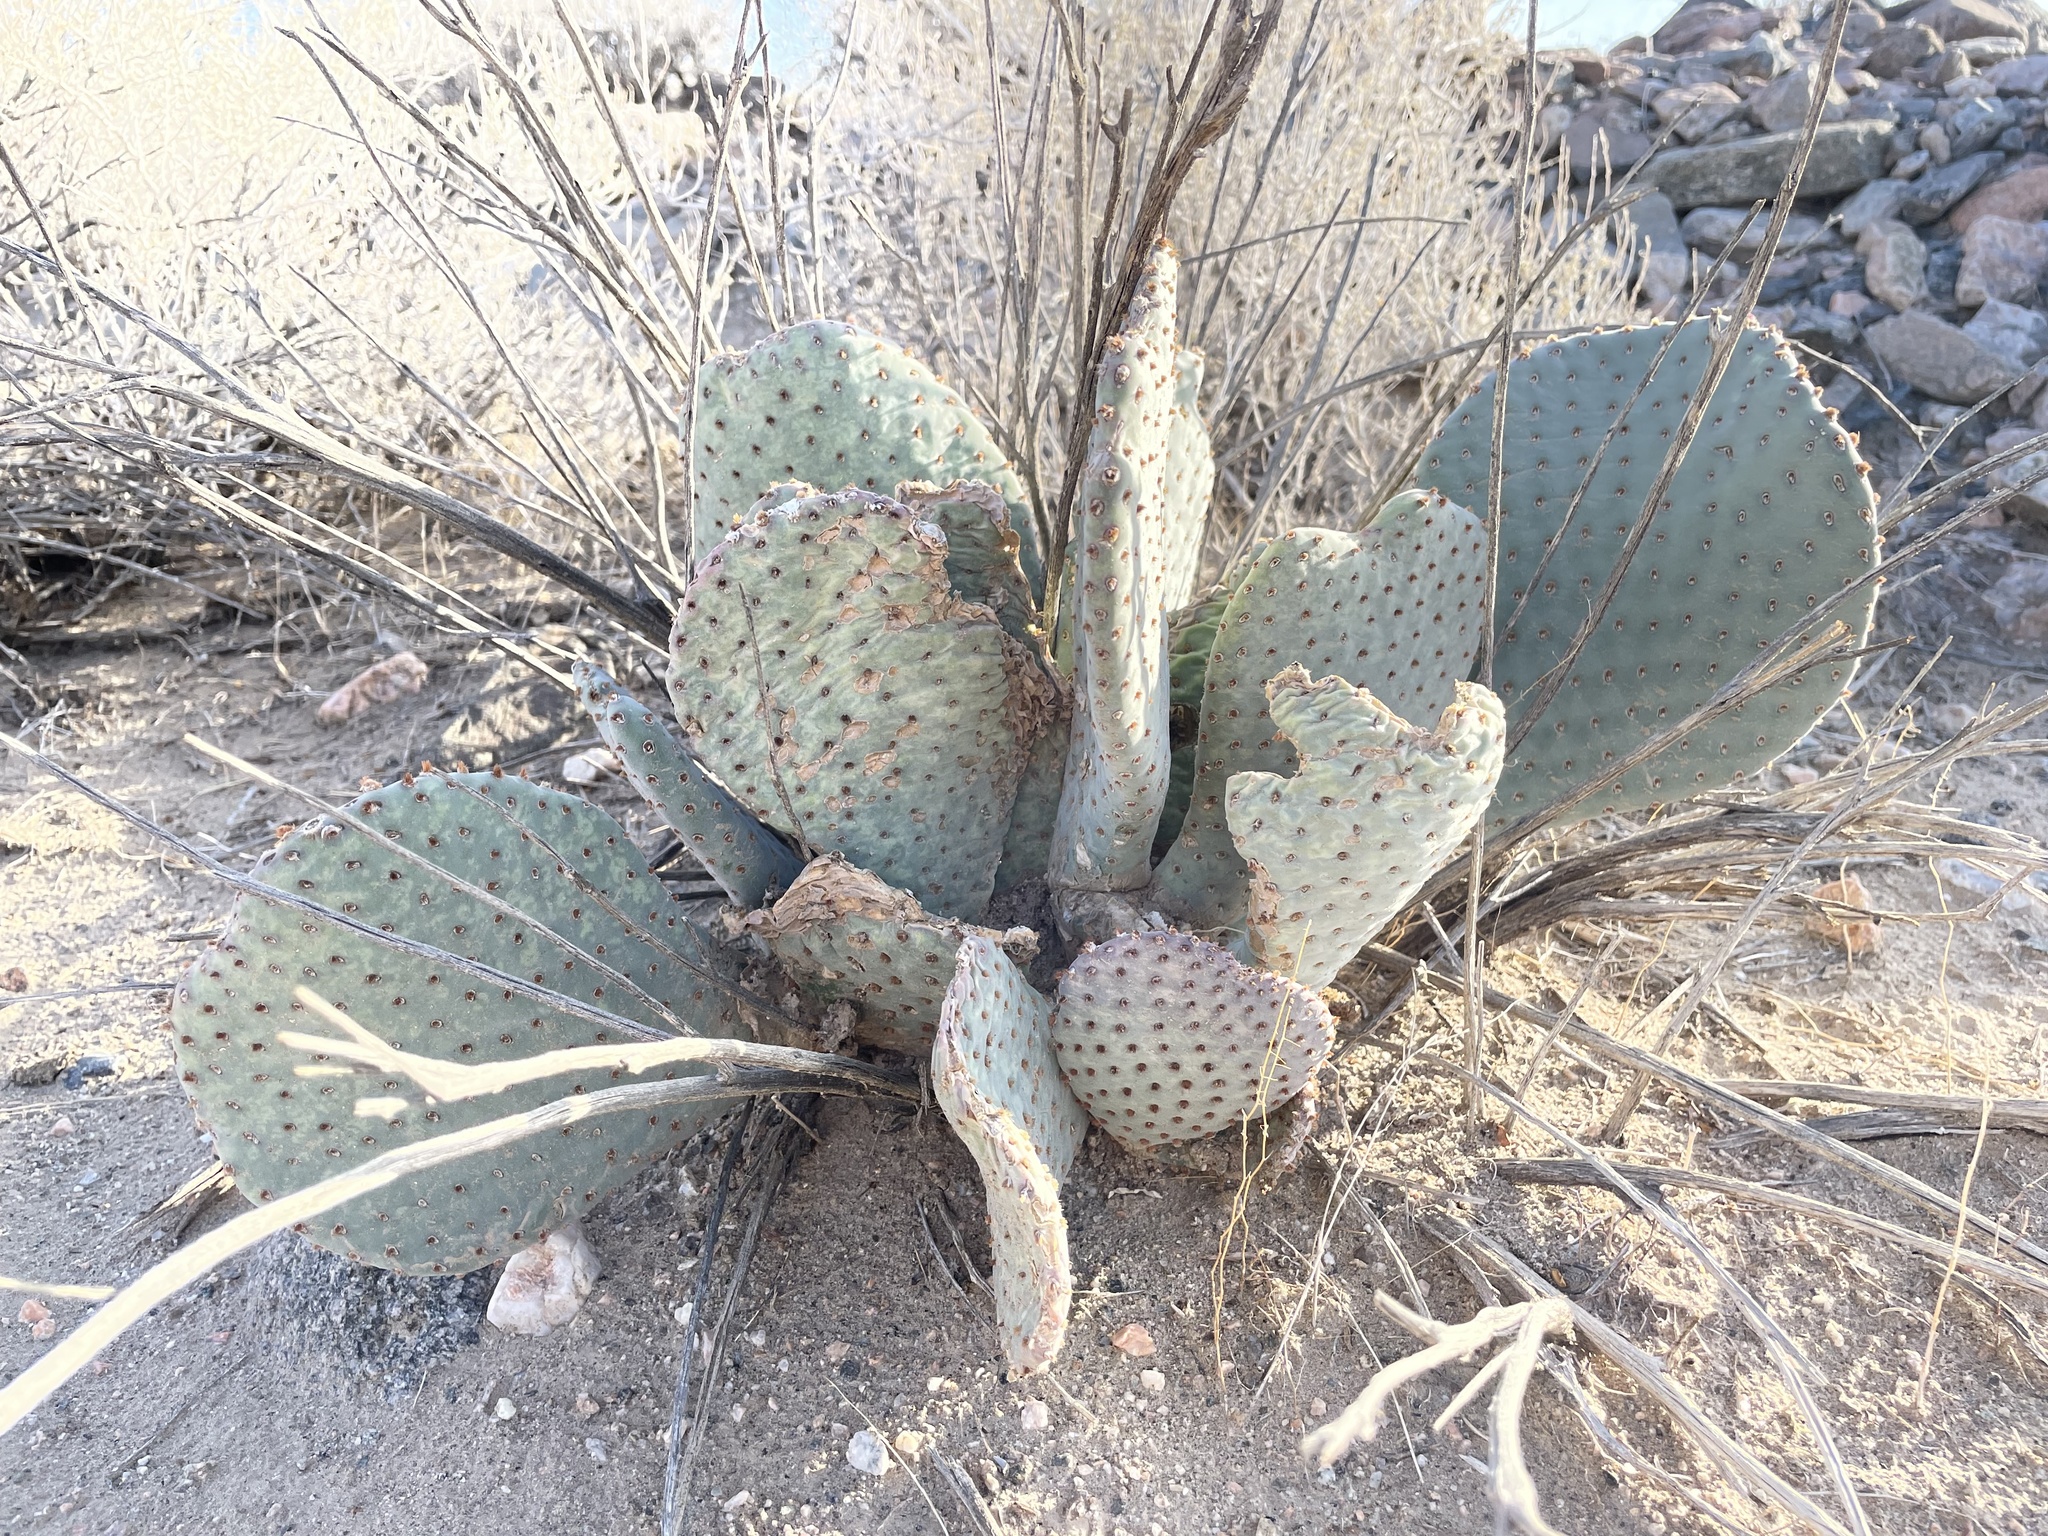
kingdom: Plantae
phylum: Tracheophyta
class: Magnoliopsida
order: Caryophyllales
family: Cactaceae
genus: Opuntia
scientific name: Opuntia basilaris
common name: Beavertail prickly-pear
